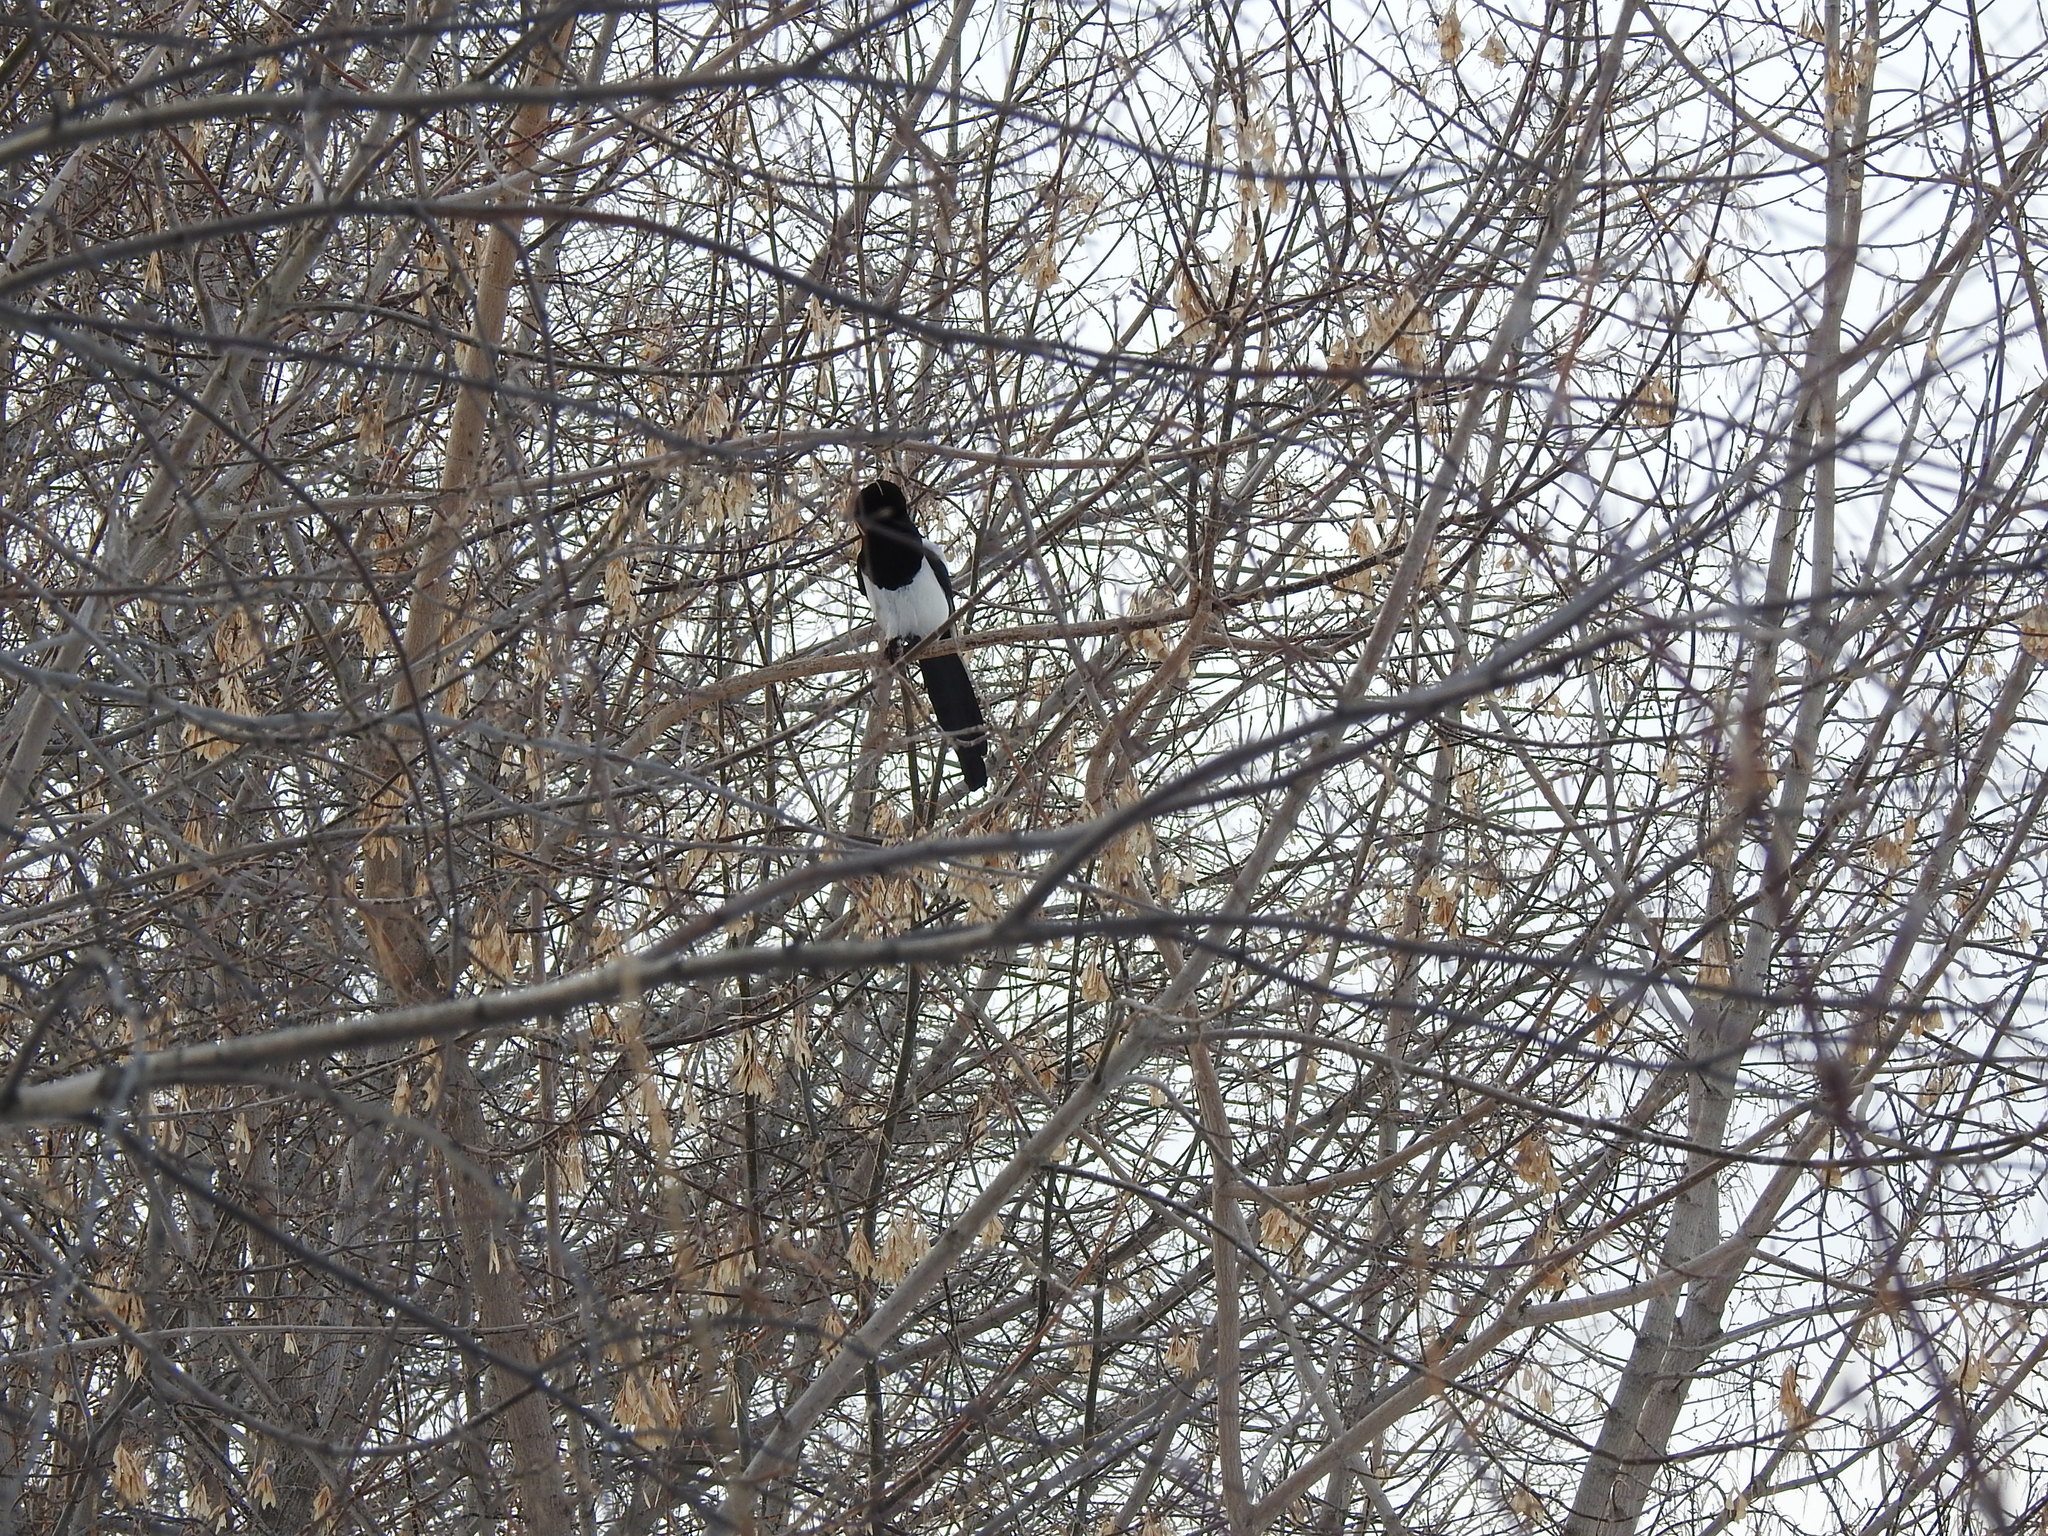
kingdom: Animalia
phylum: Chordata
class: Aves
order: Passeriformes
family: Corvidae
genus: Pica
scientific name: Pica pica
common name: Eurasian magpie
